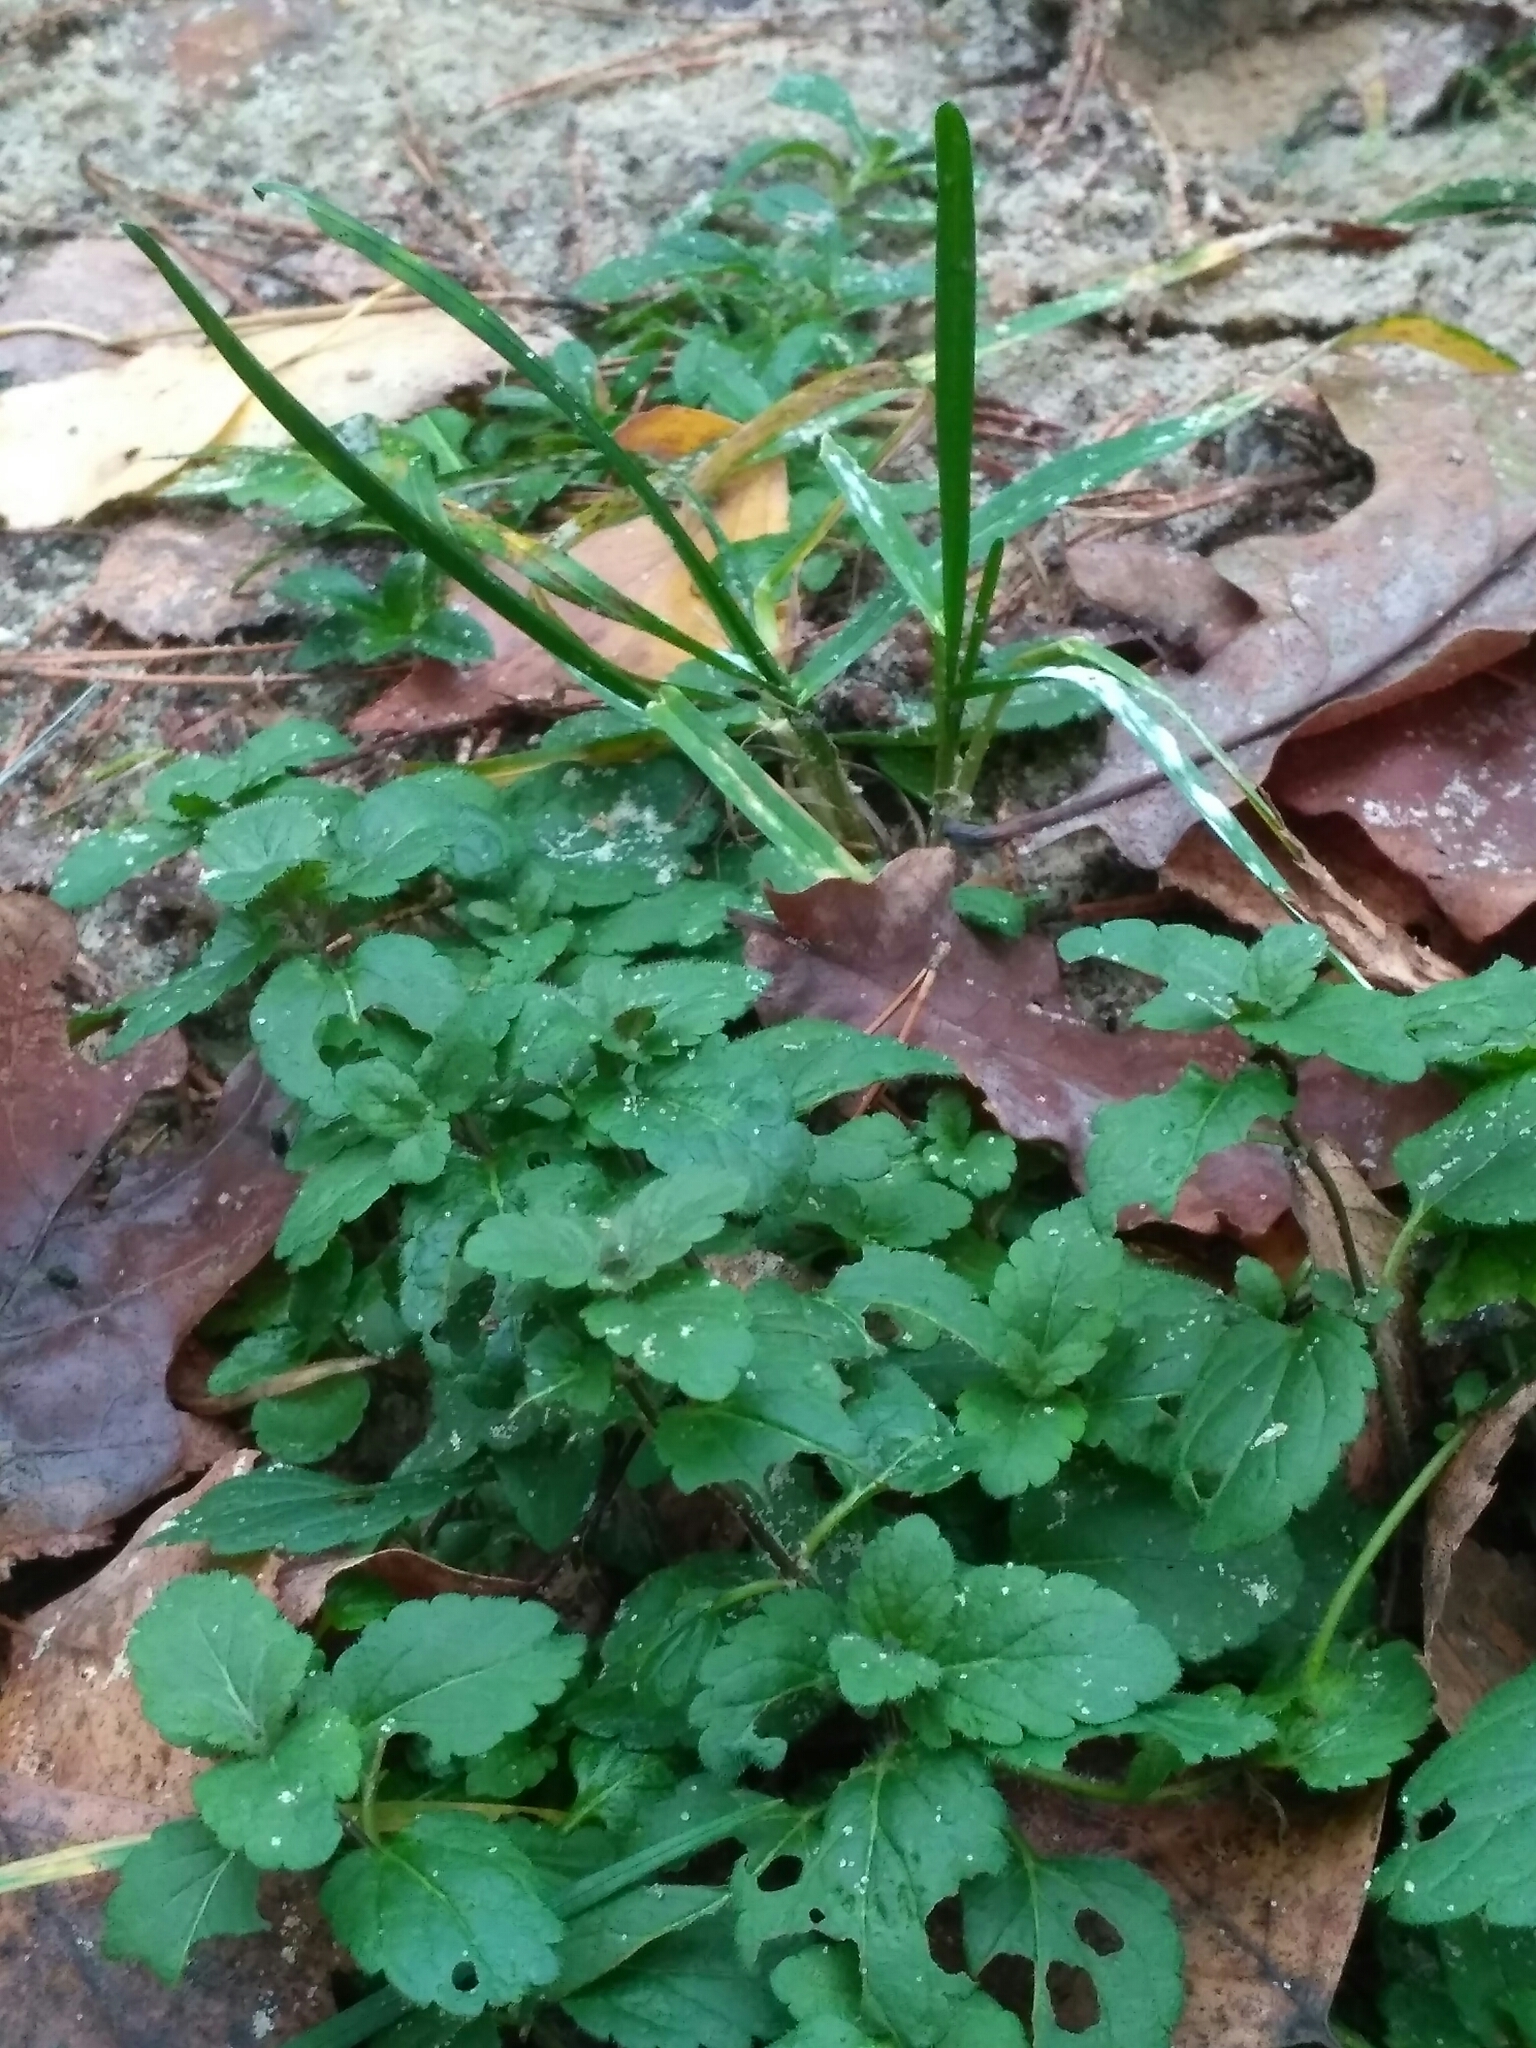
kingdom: Plantae
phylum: Tracheophyta
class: Magnoliopsida
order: Lamiales
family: Plantaginaceae
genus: Veronica
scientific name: Veronica chamaedrys
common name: Germander speedwell
